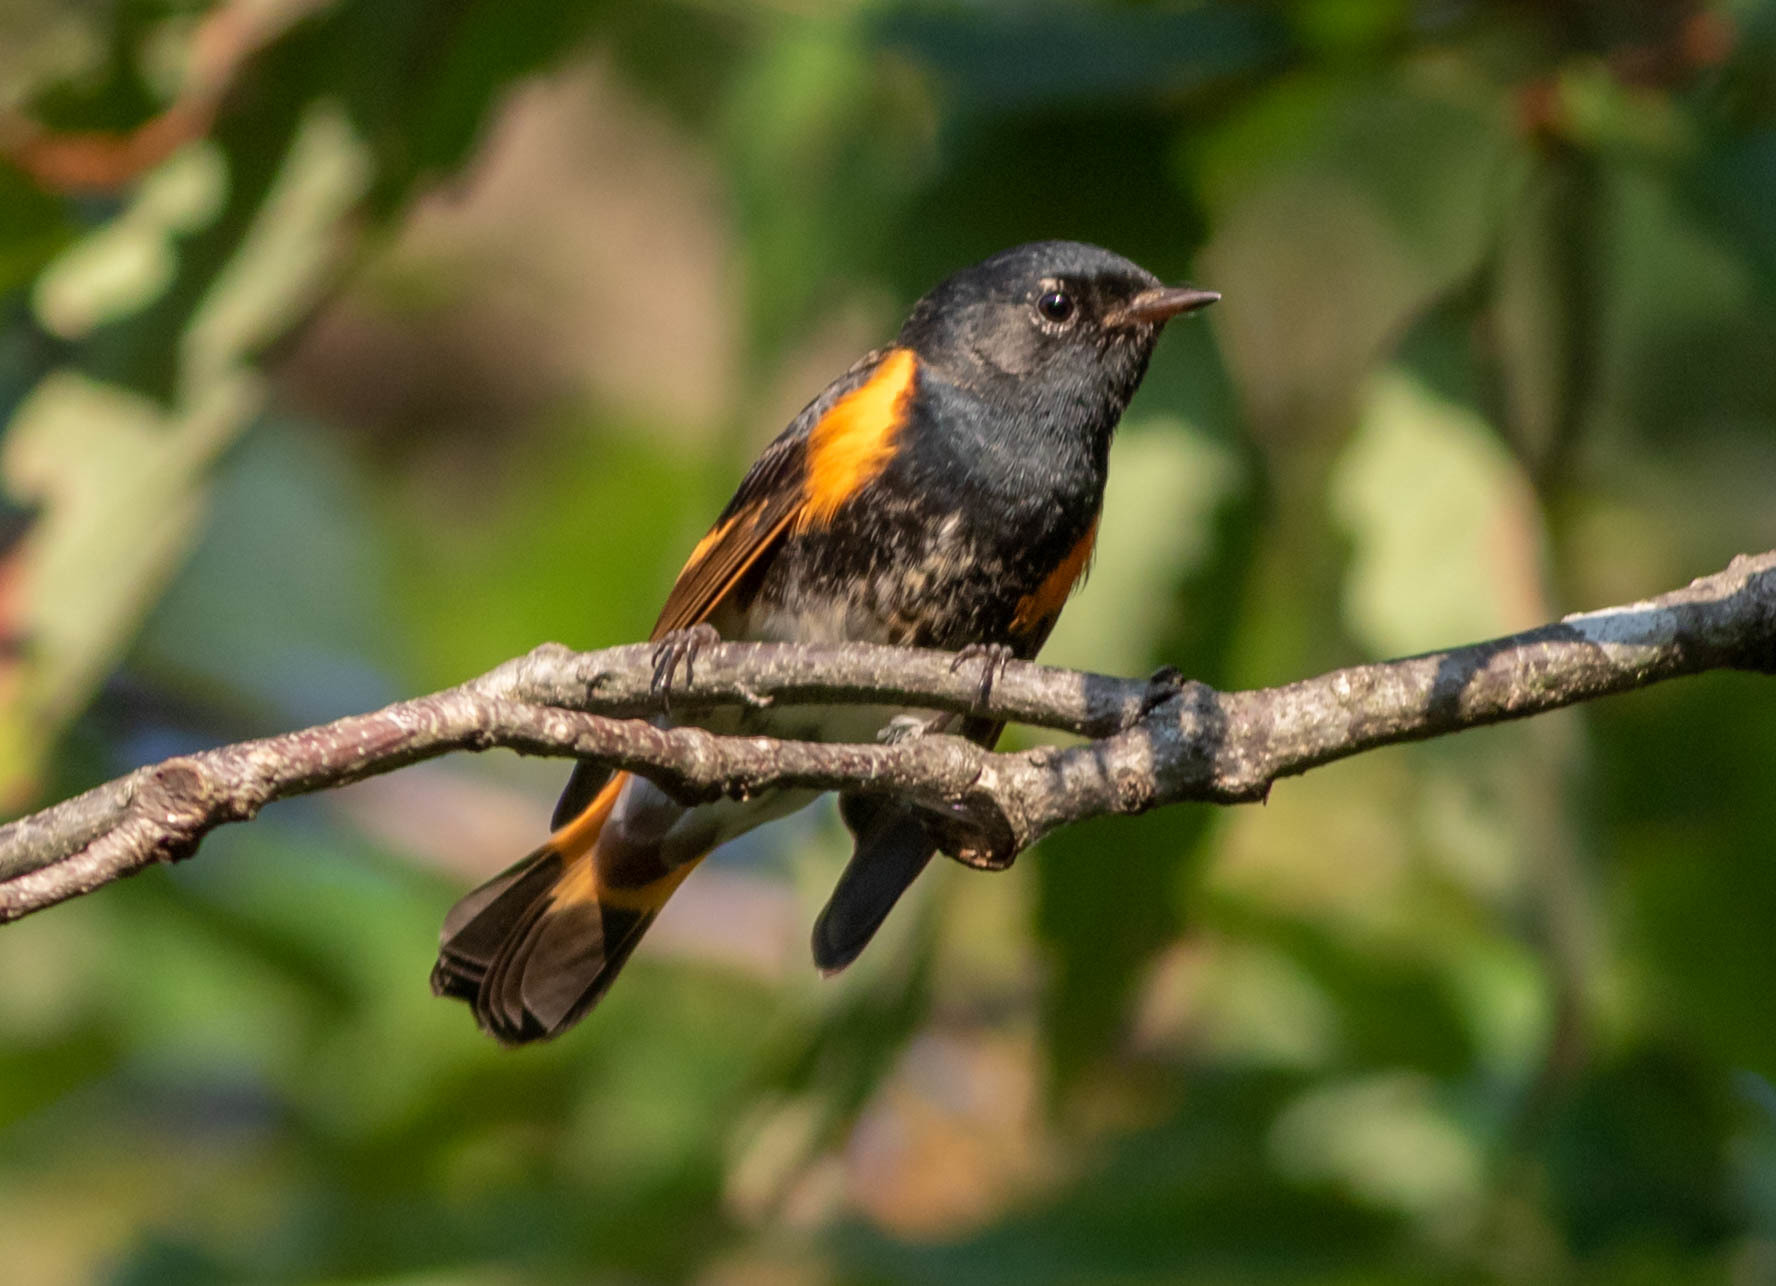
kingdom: Animalia
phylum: Chordata
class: Aves
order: Passeriformes
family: Parulidae
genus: Setophaga
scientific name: Setophaga ruticilla
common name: American redstart
